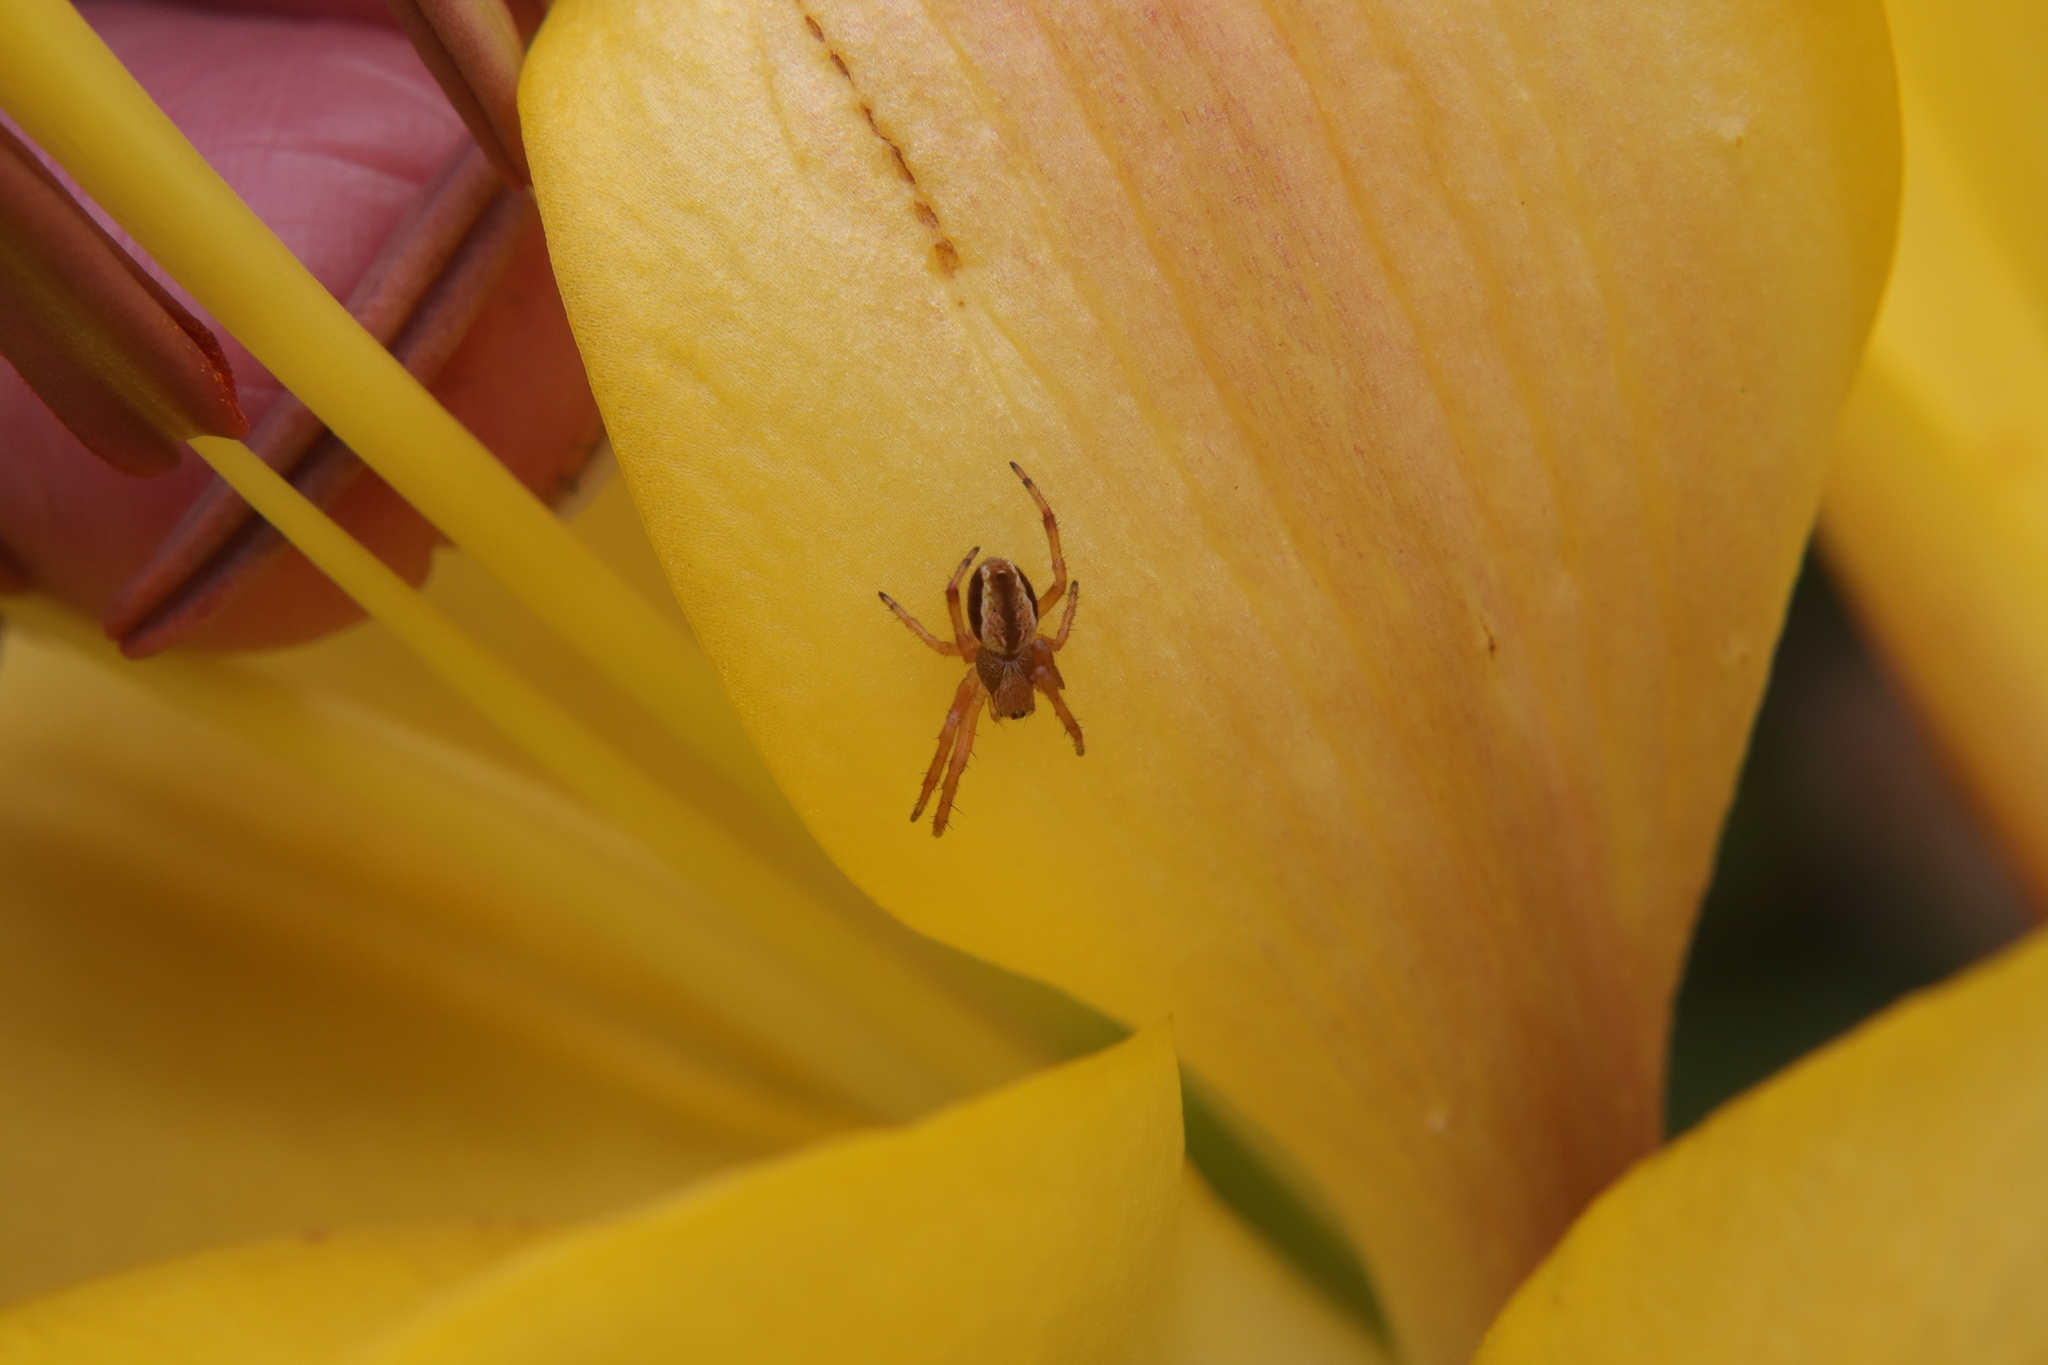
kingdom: Animalia
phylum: Arthropoda
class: Arachnida
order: Araneae
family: Araneidae
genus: Salsa
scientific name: Salsa fuliginata
